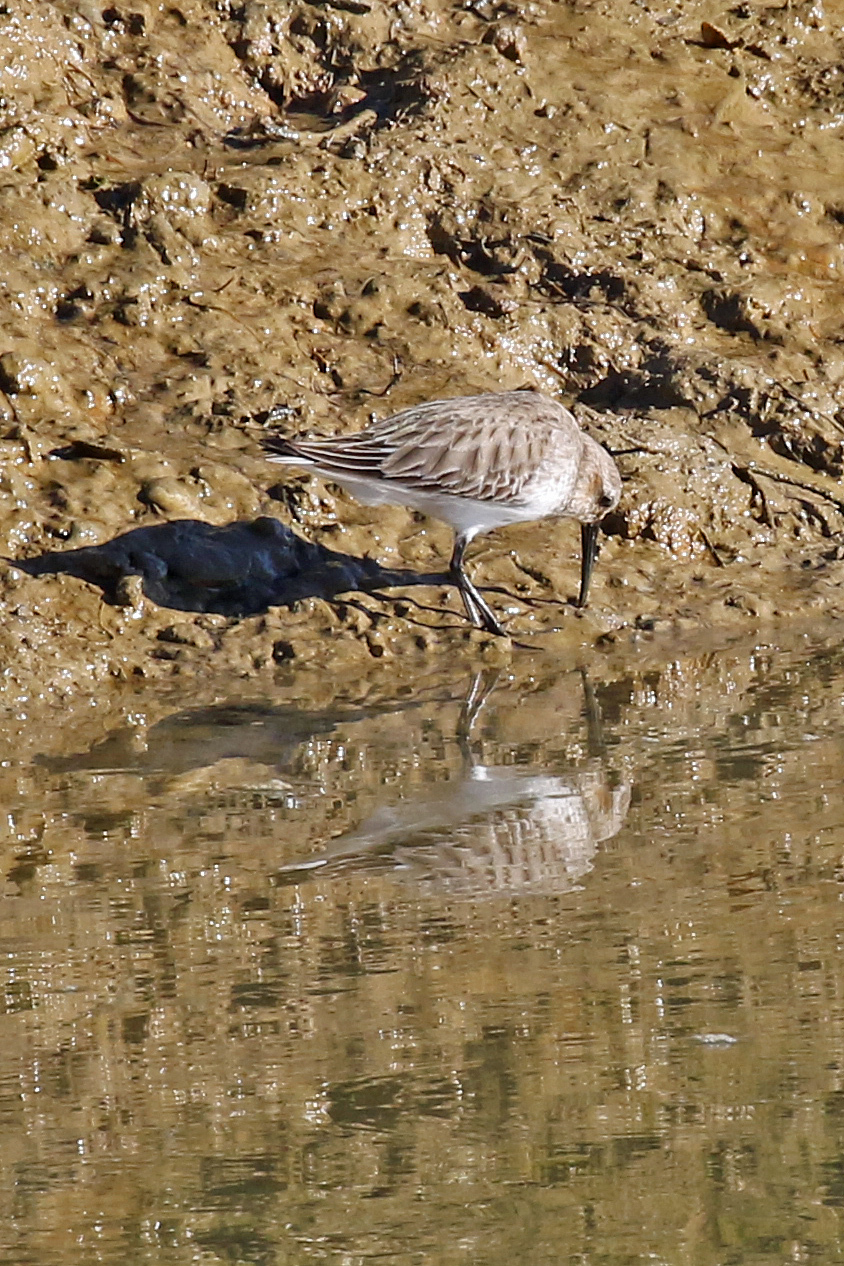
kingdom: Animalia
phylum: Chordata
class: Aves
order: Charadriiformes
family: Scolopacidae
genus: Calidris
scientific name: Calidris alpina
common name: Dunlin
